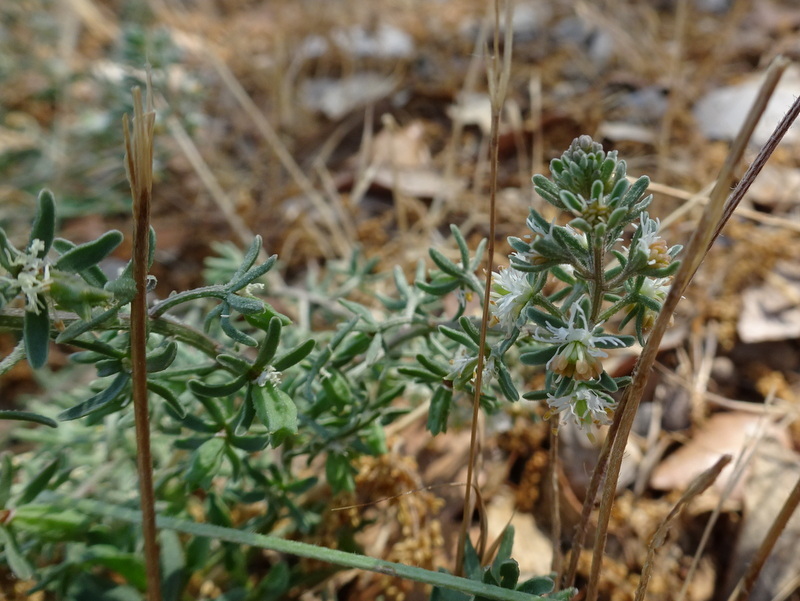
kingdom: Plantae
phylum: Tracheophyta
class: Magnoliopsida
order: Brassicales
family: Resedaceae
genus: Reseda
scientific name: Reseda phyteuma
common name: Corn mignonette
